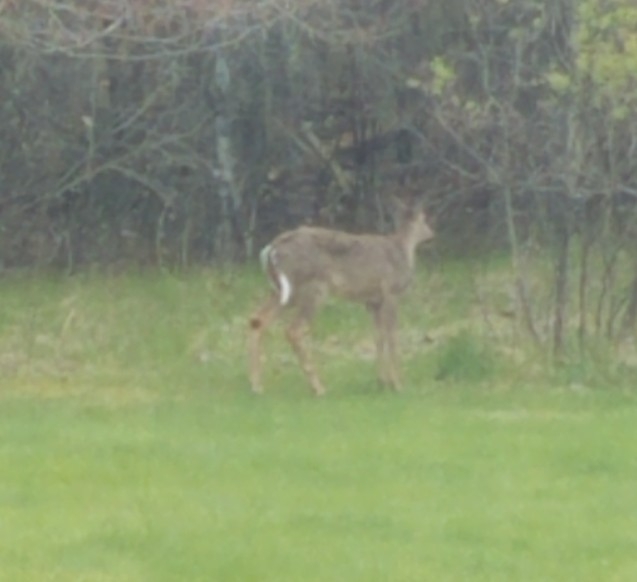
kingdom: Animalia
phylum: Chordata
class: Mammalia
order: Artiodactyla
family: Cervidae
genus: Odocoileus
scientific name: Odocoileus virginianus
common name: White-tailed deer
